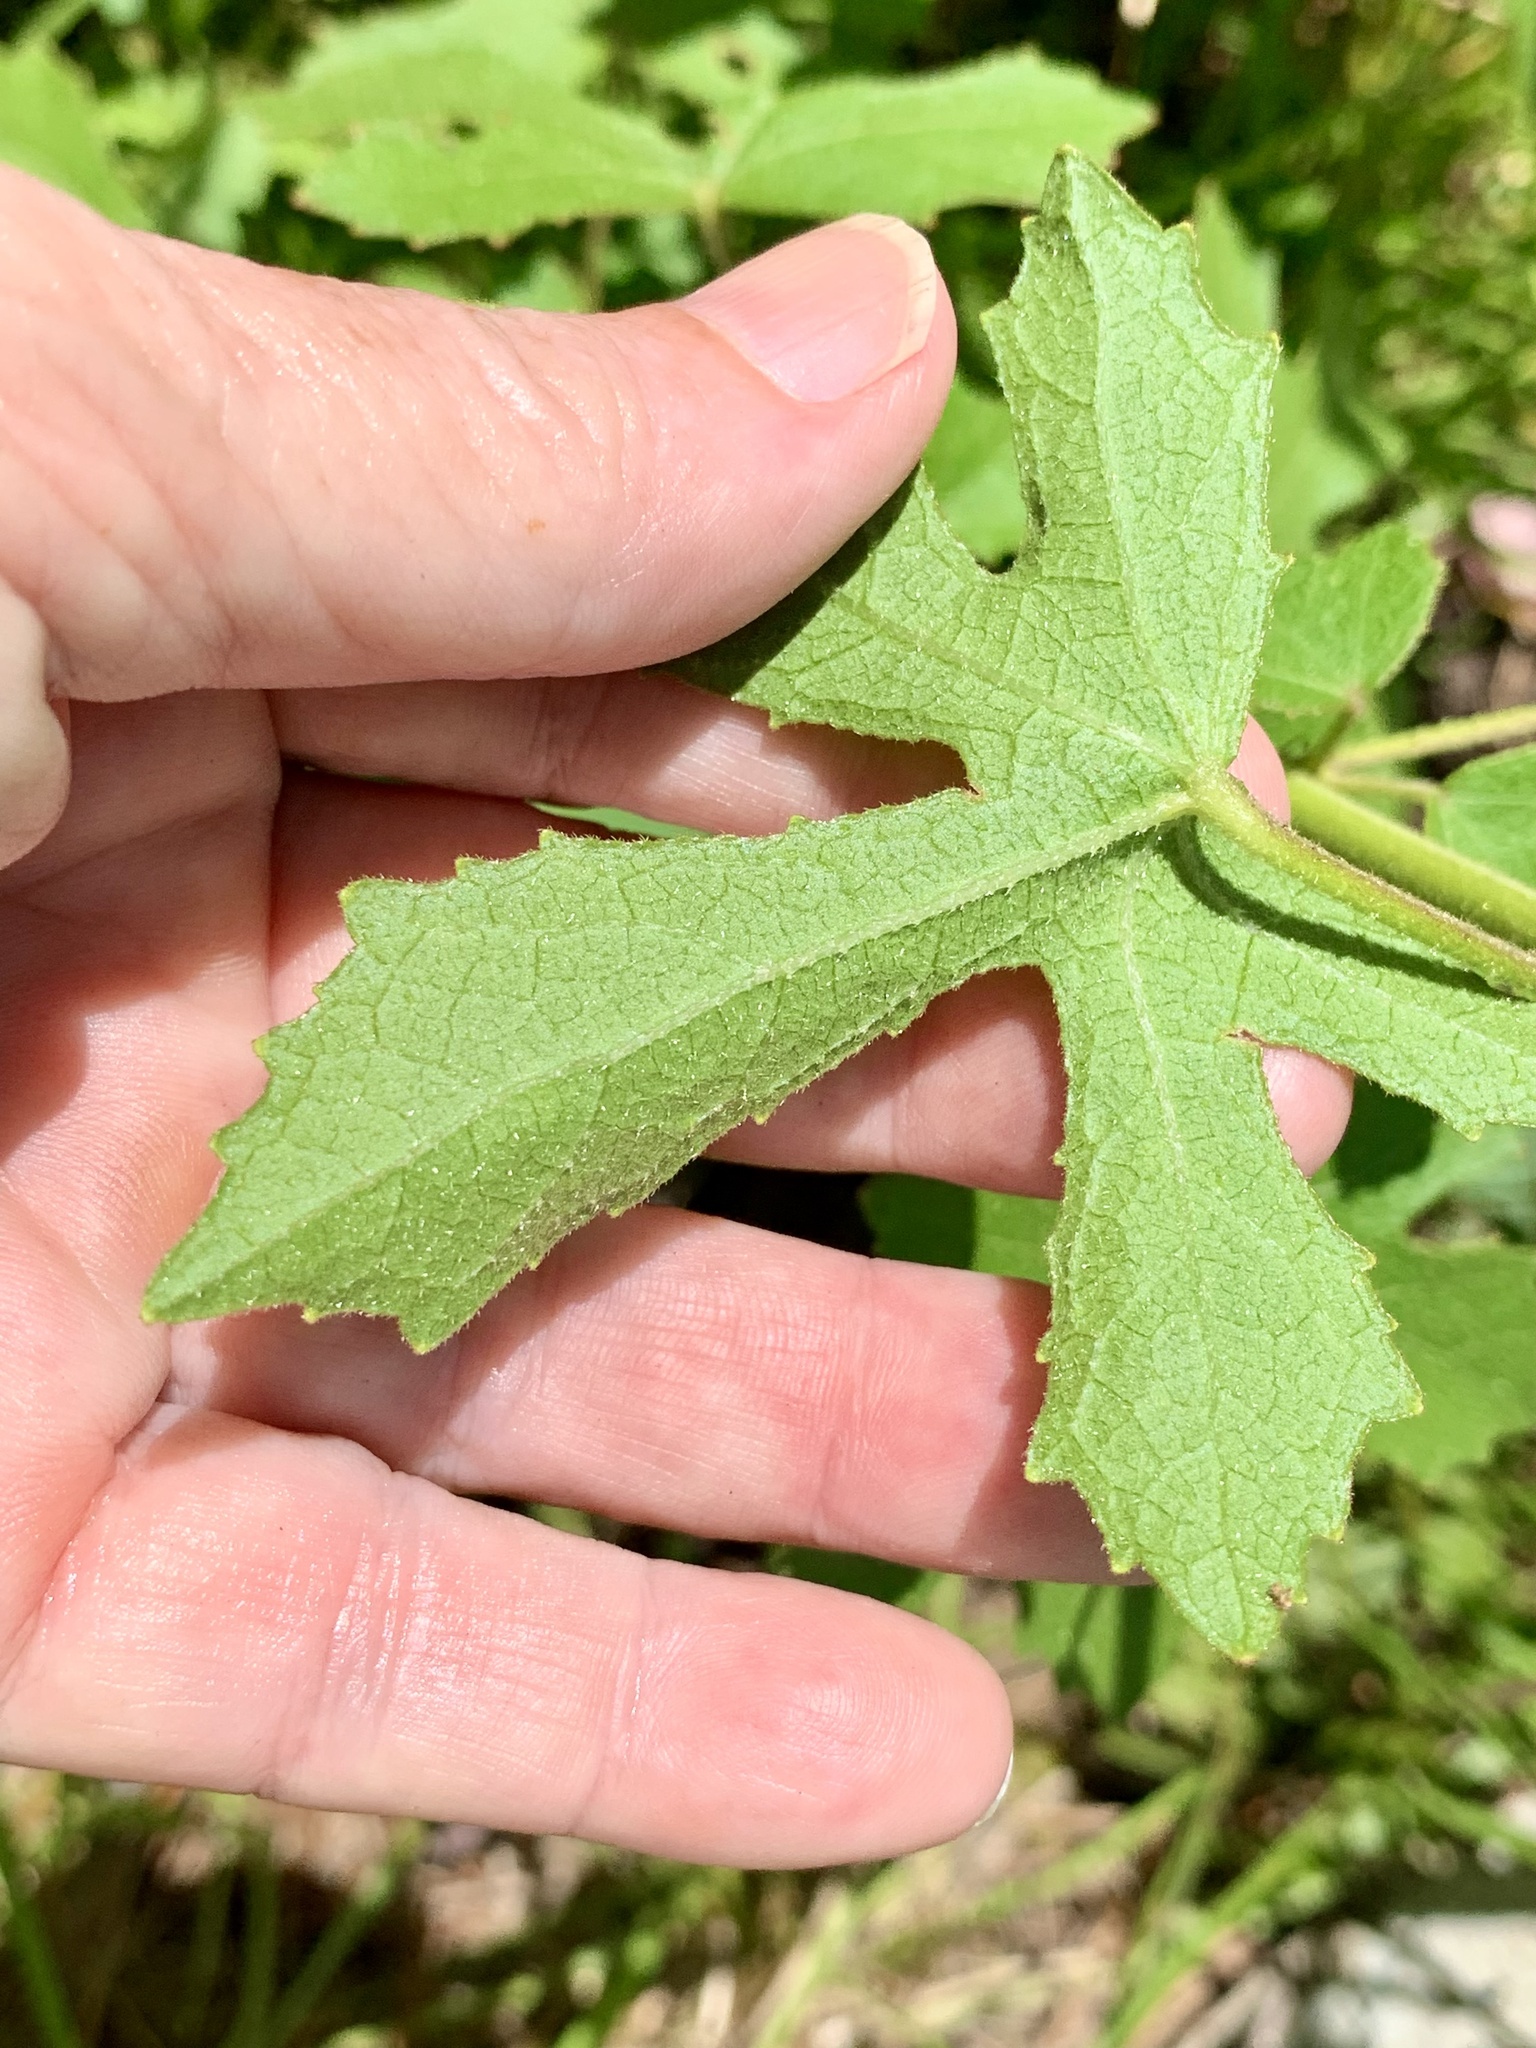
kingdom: Plantae
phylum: Tracheophyta
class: Magnoliopsida
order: Malvales
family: Malvaceae
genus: Hibiscus
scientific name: Hibiscus aculeatus
